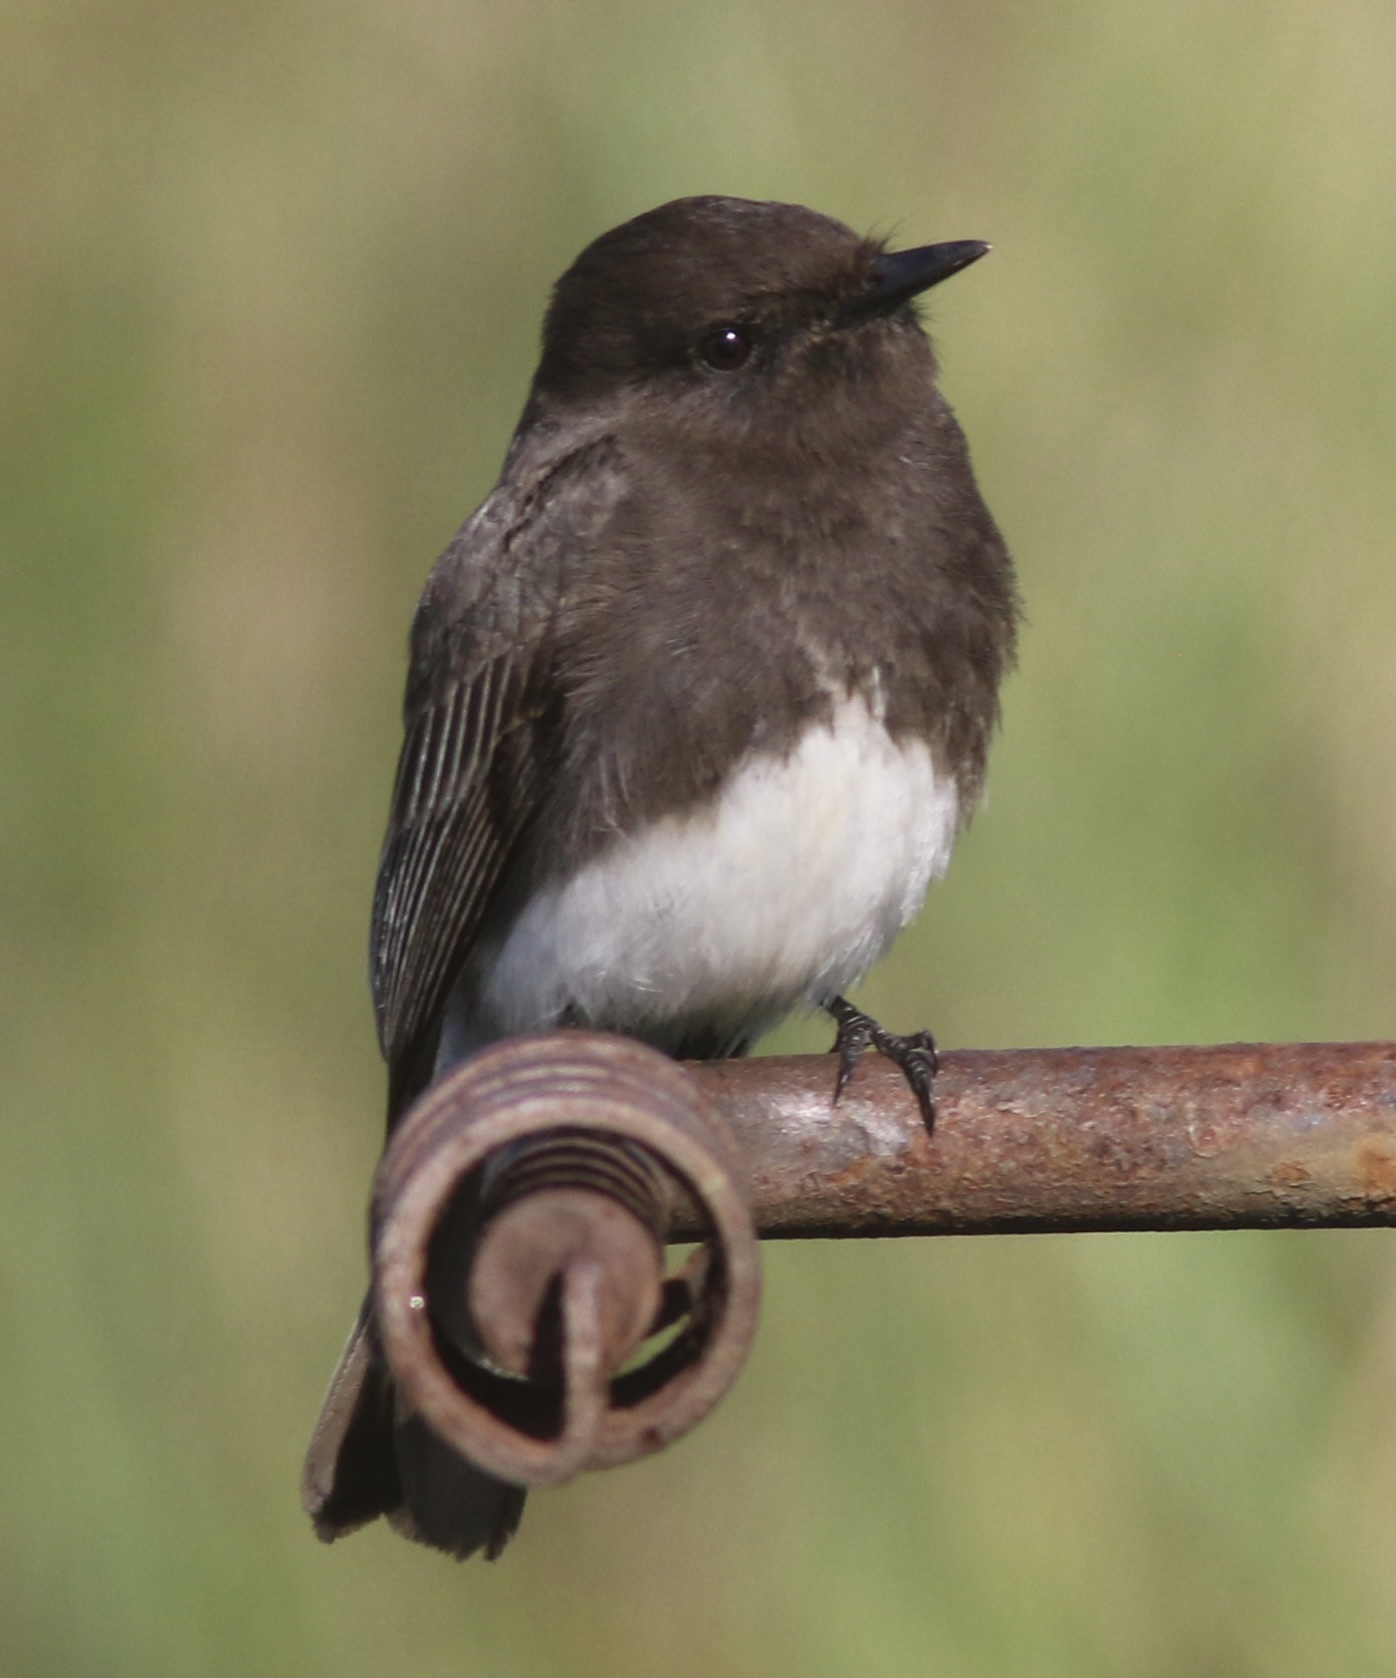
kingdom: Animalia
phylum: Chordata
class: Aves
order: Passeriformes
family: Tyrannidae
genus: Sayornis
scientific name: Sayornis nigricans
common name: Black phoebe
